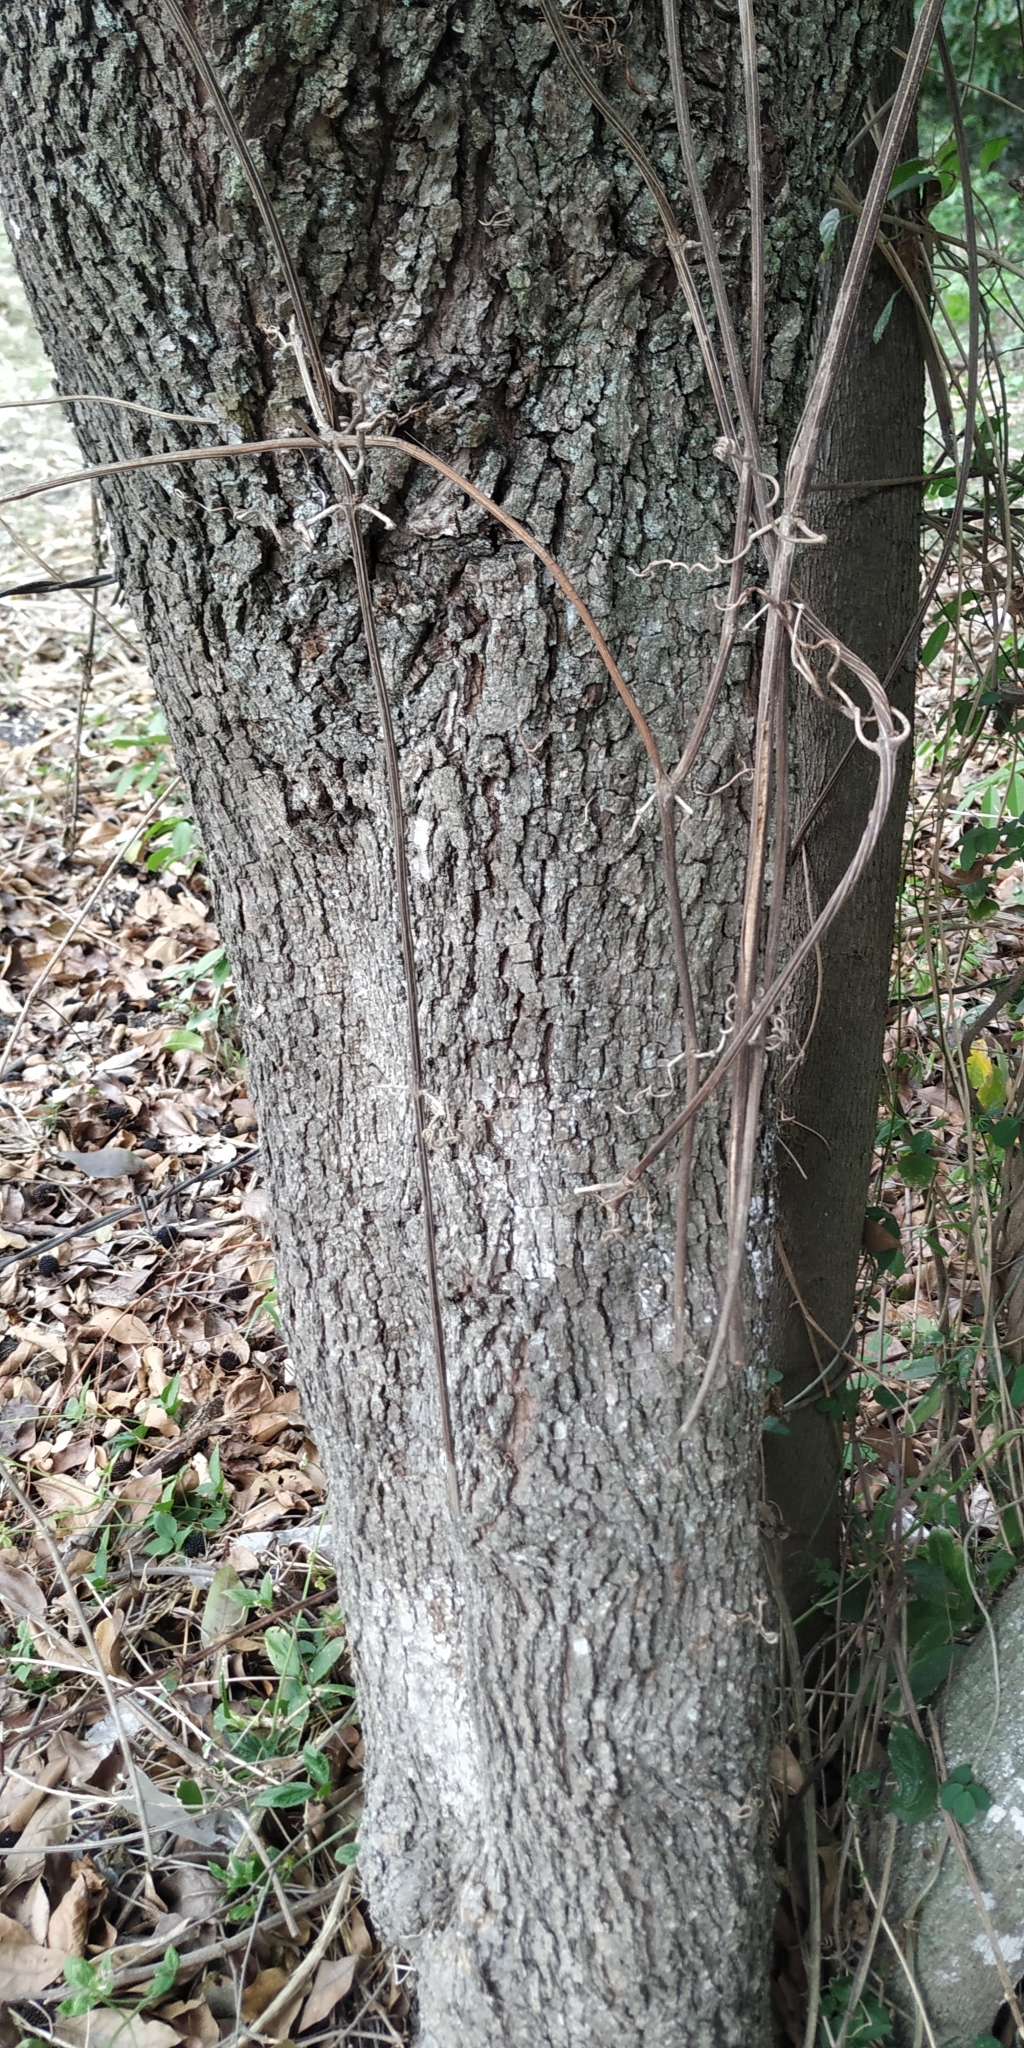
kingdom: Plantae
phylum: Tracheophyta
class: Magnoliopsida
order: Malvales
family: Malvaceae
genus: Guazuma
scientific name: Guazuma ulmifolia
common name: Bastard-cedar
